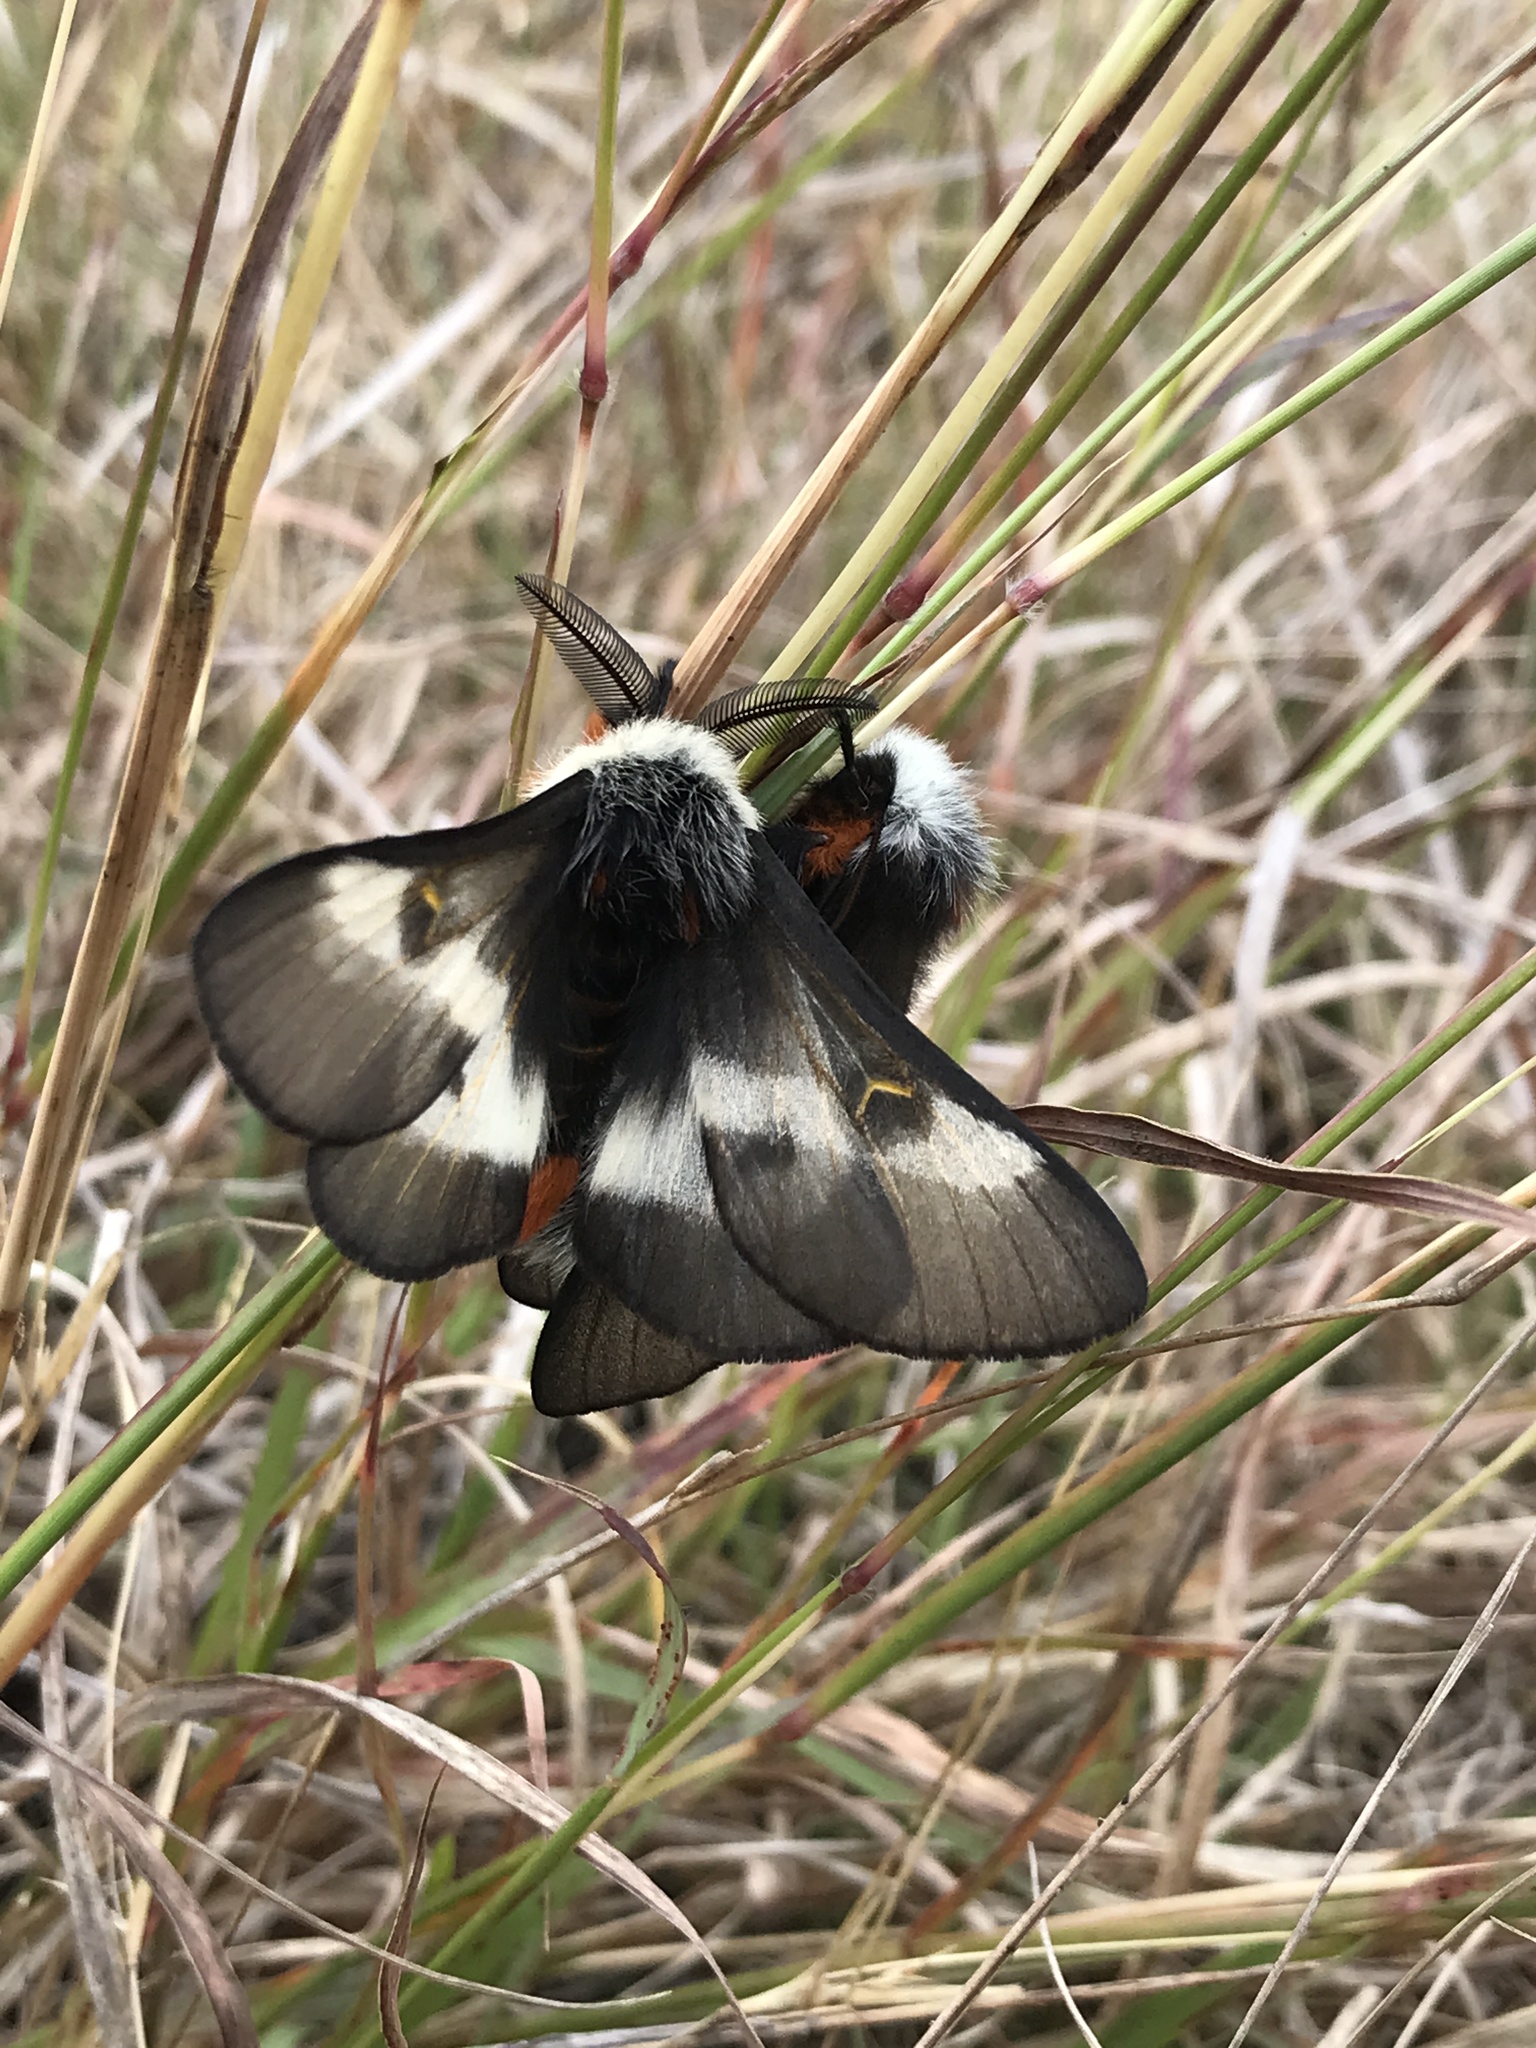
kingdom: Animalia
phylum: Arthropoda
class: Insecta
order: Lepidoptera
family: Saturniidae
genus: Hemileuca
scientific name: Hemileuca peigleri
